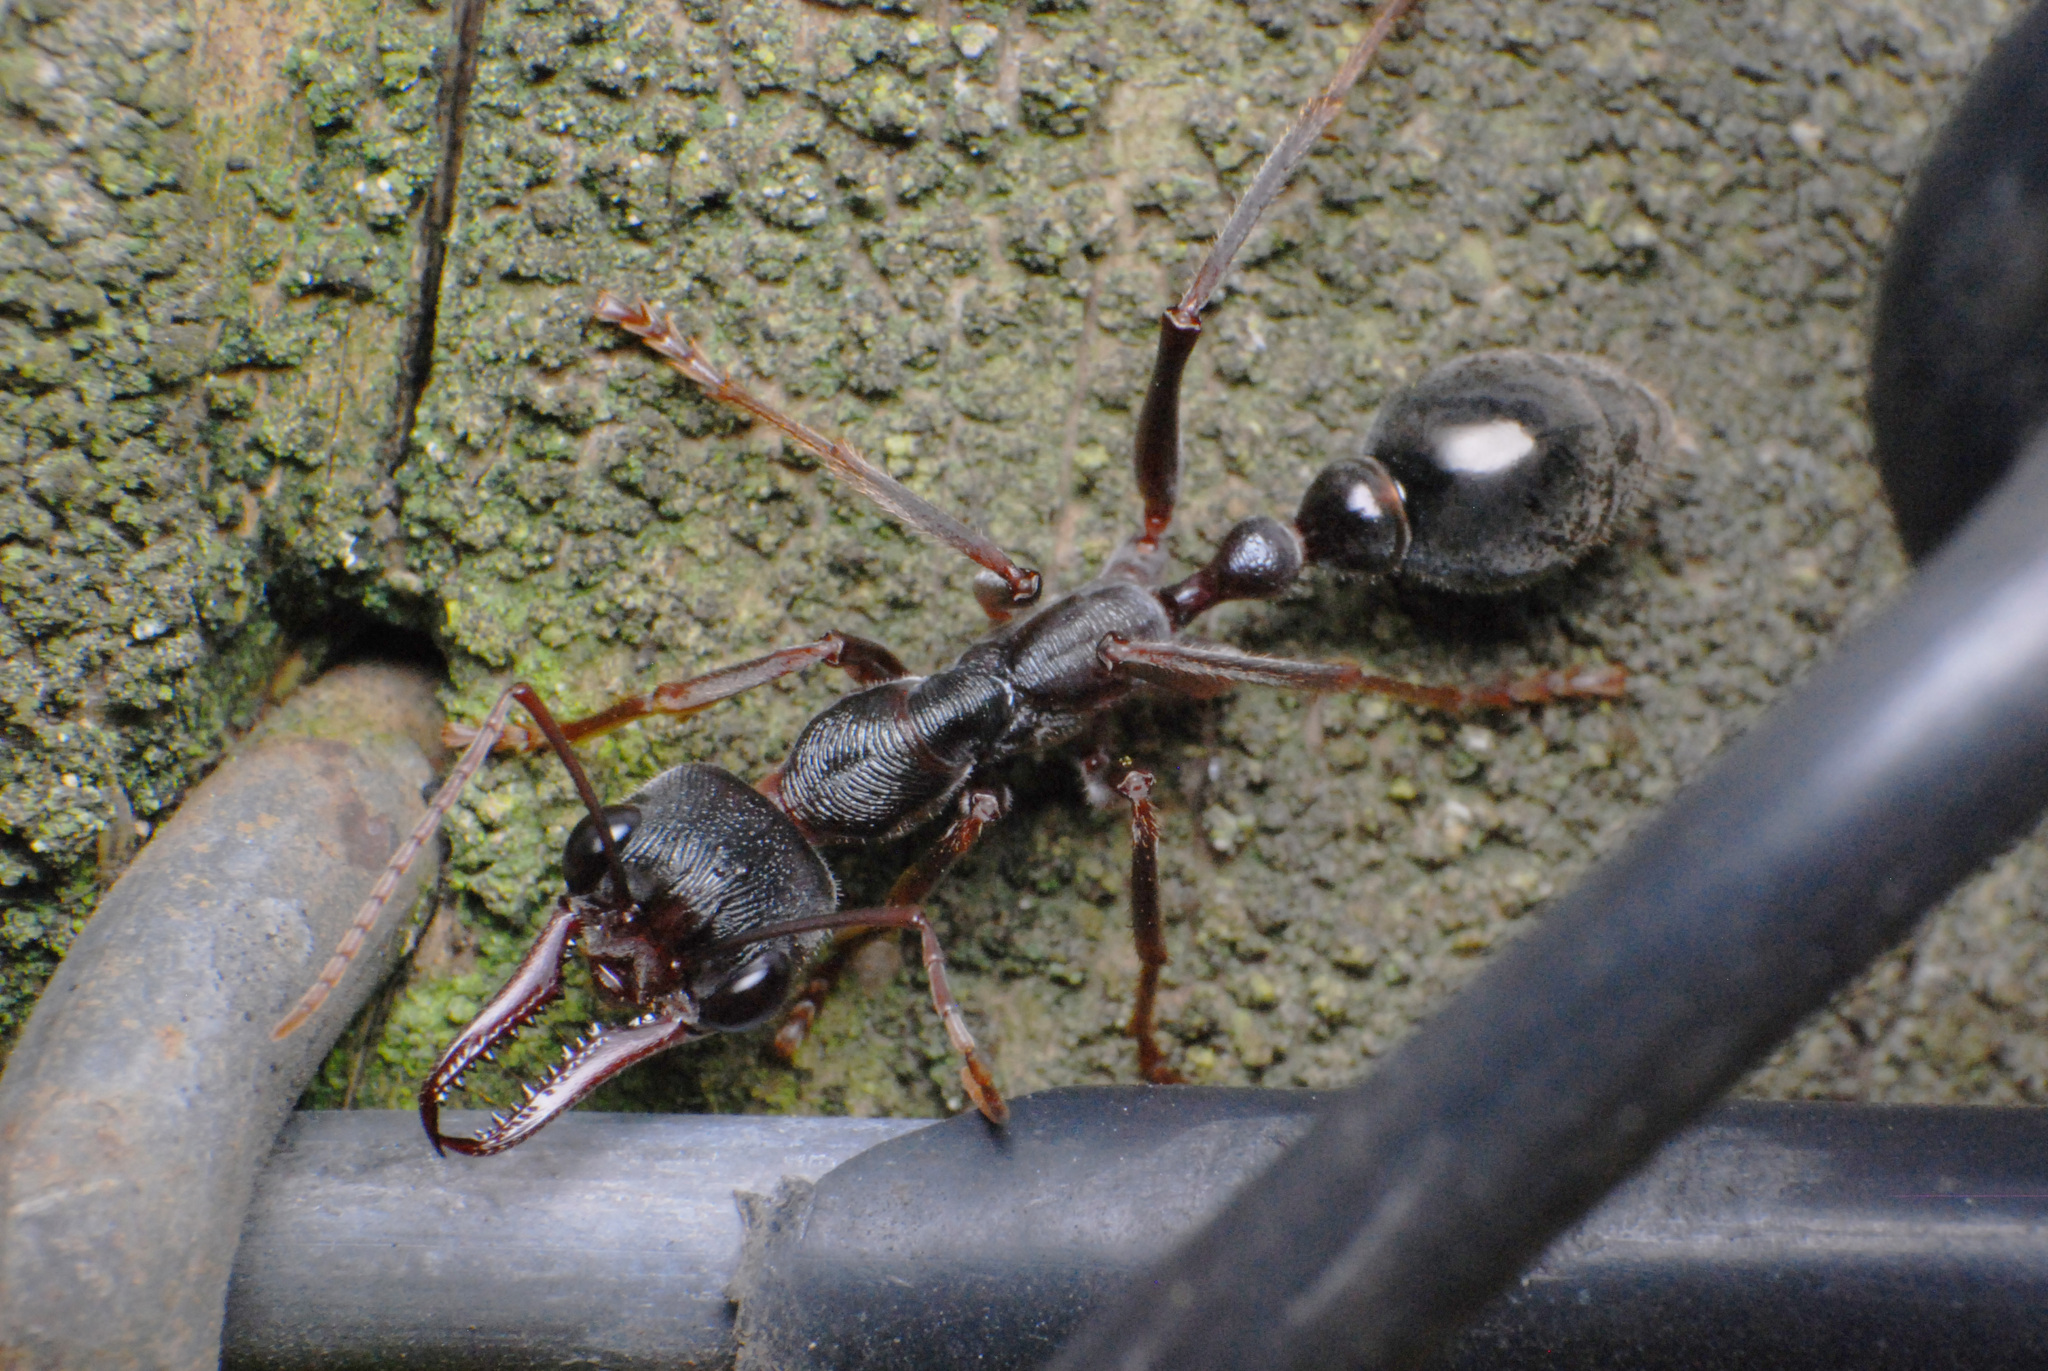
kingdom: Animalia
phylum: Arthropoda
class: Insecta
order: Hymenoptera
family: Formicidae
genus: Myrmecia
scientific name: Myrmecia pyriformis
